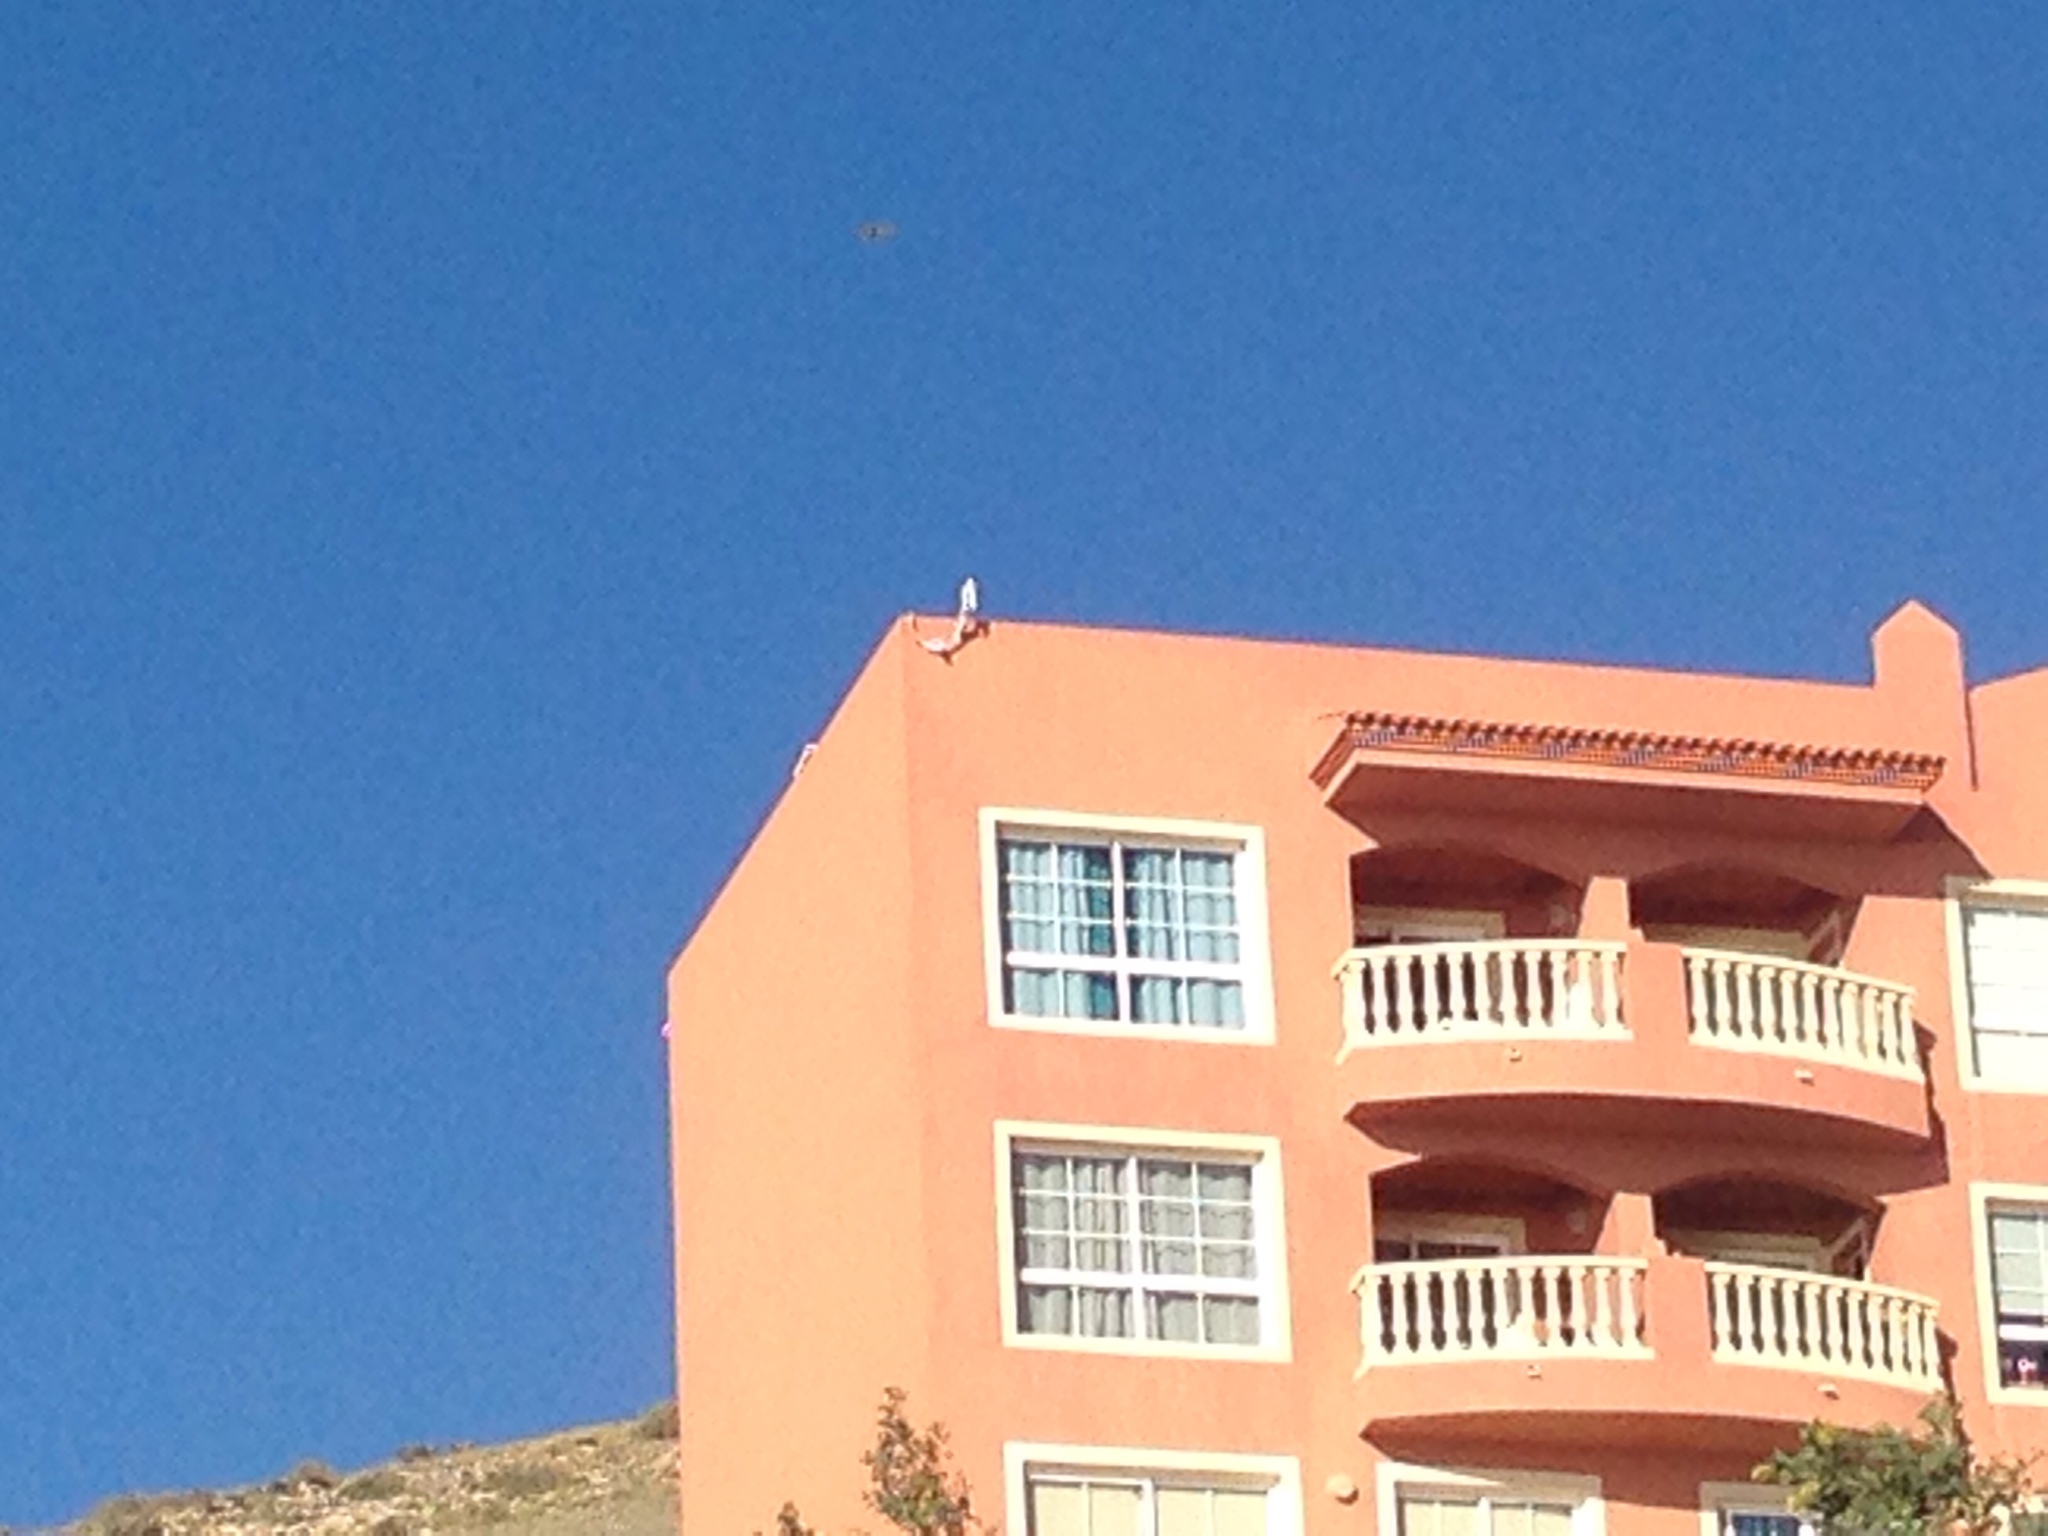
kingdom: Animalia
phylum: Chordata
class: Aves
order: Falconiformes
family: Falconidae
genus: Falco
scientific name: Falco tinnunculus
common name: Common kestrel
